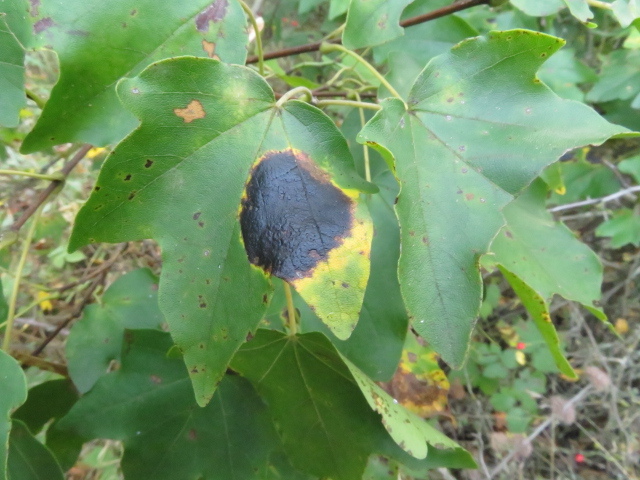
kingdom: Fungi
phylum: Ascomycota
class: Leotiomycetes
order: Rhytismatales
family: Rhytismataceae
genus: Rhytisma
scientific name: Rhytisma acerinum
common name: European tar spot
